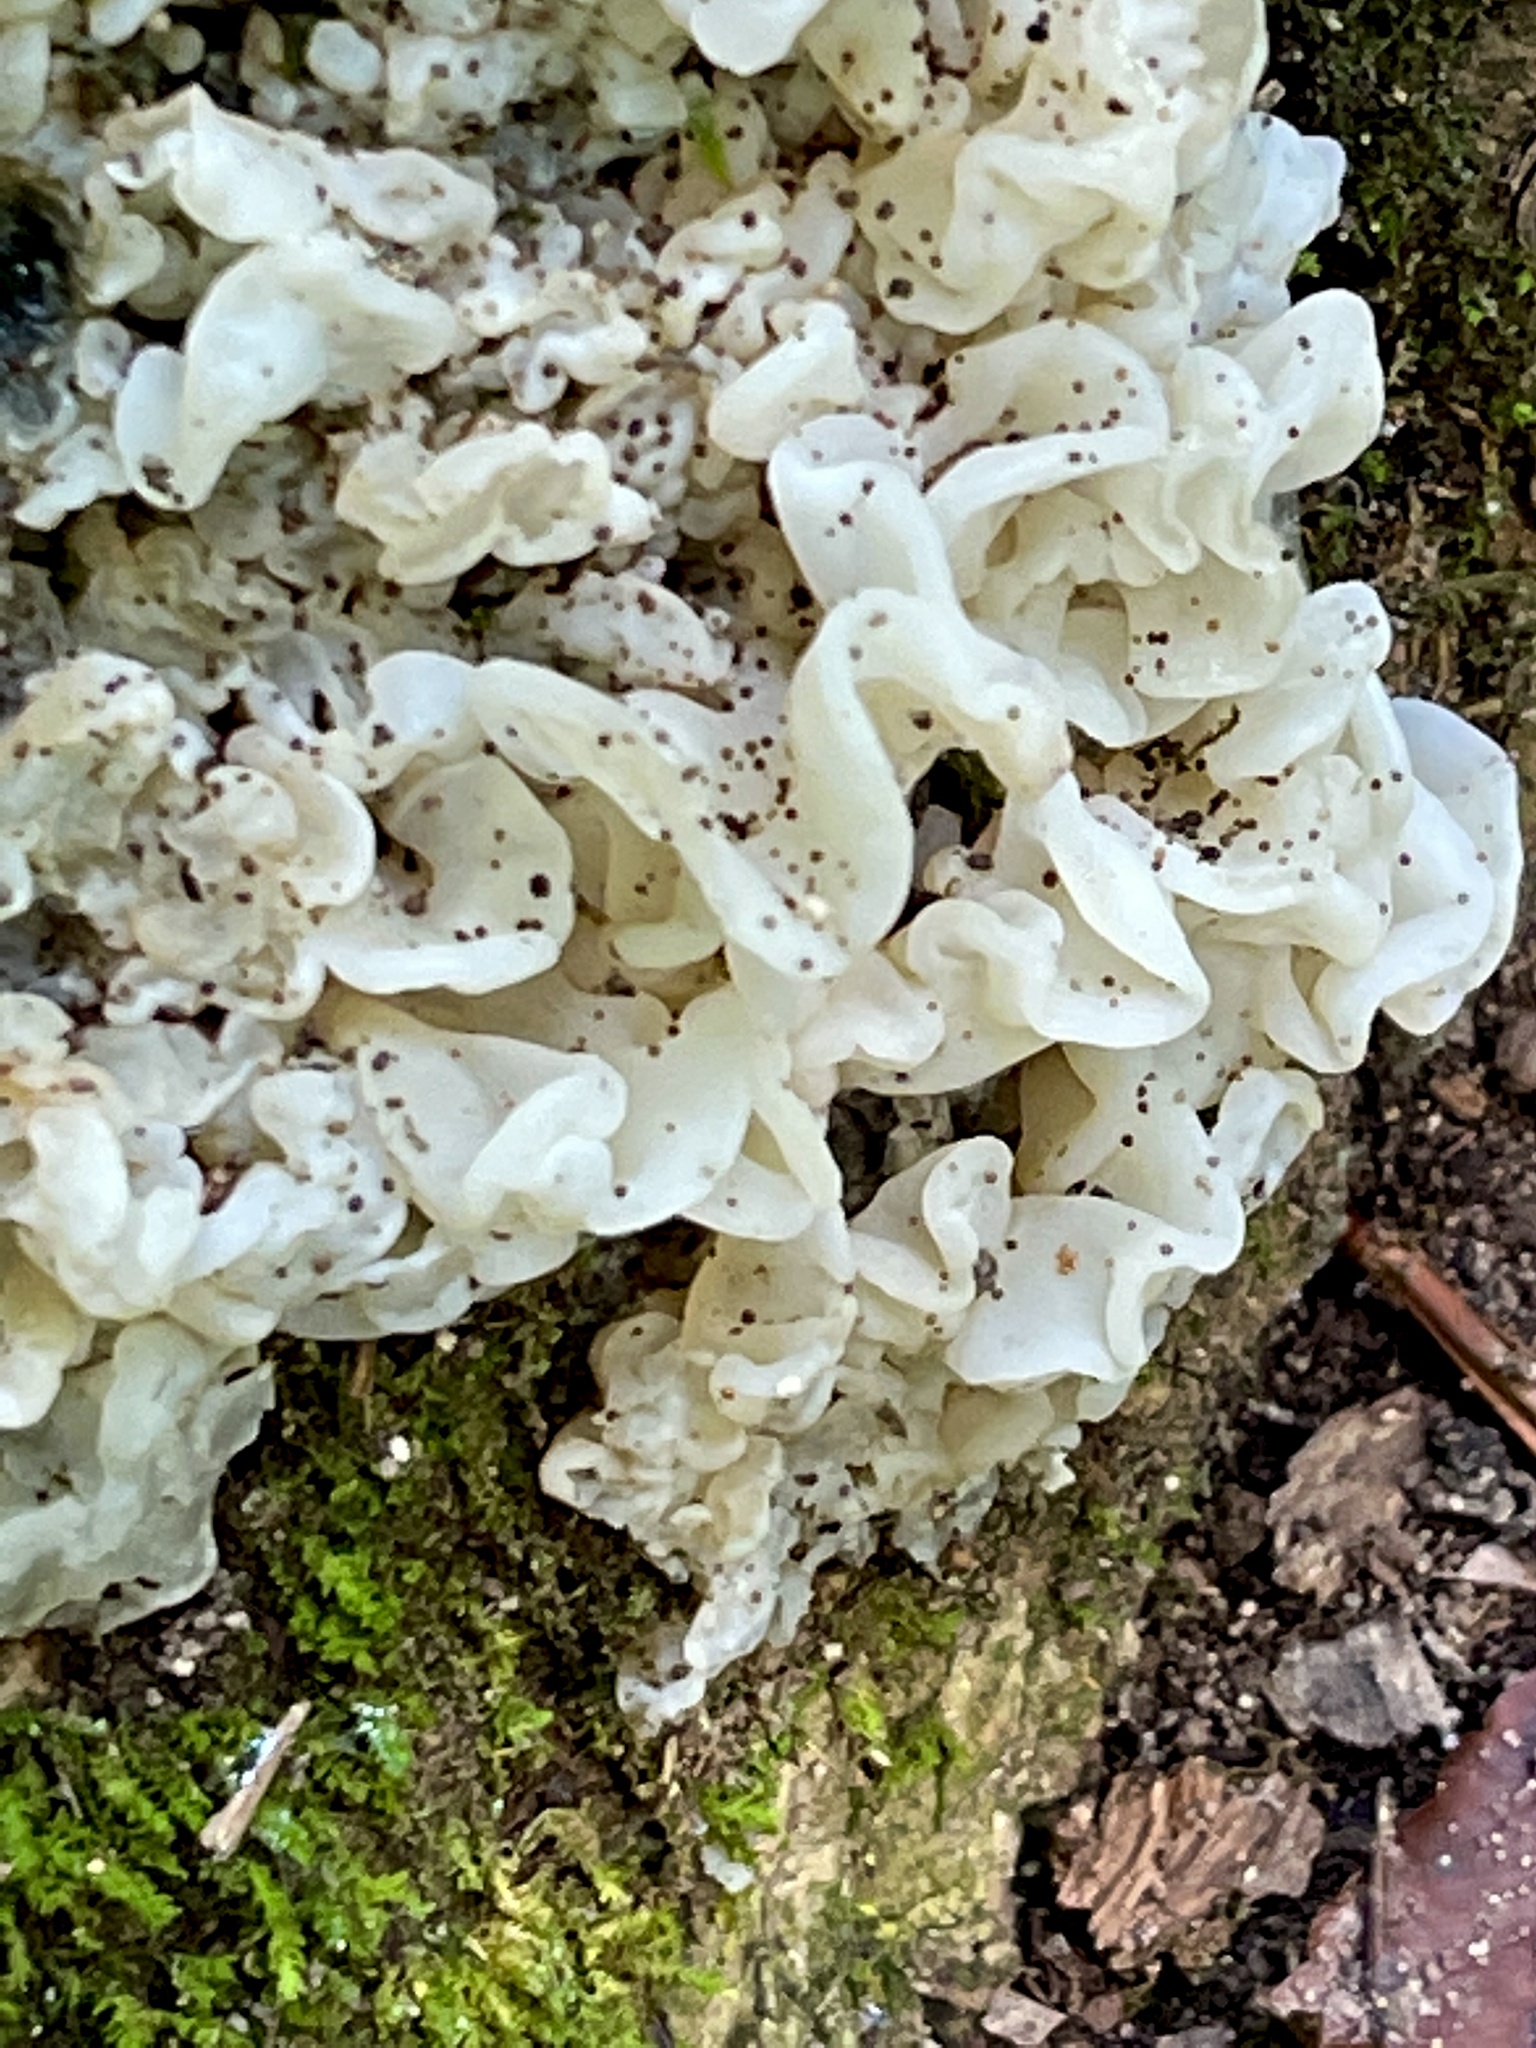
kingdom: Fungi
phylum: Basidiomycota
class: Agaricomycetes
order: Auriculariales
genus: Ductifera
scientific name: Ductifera pululahuana
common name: White jelly fungus
